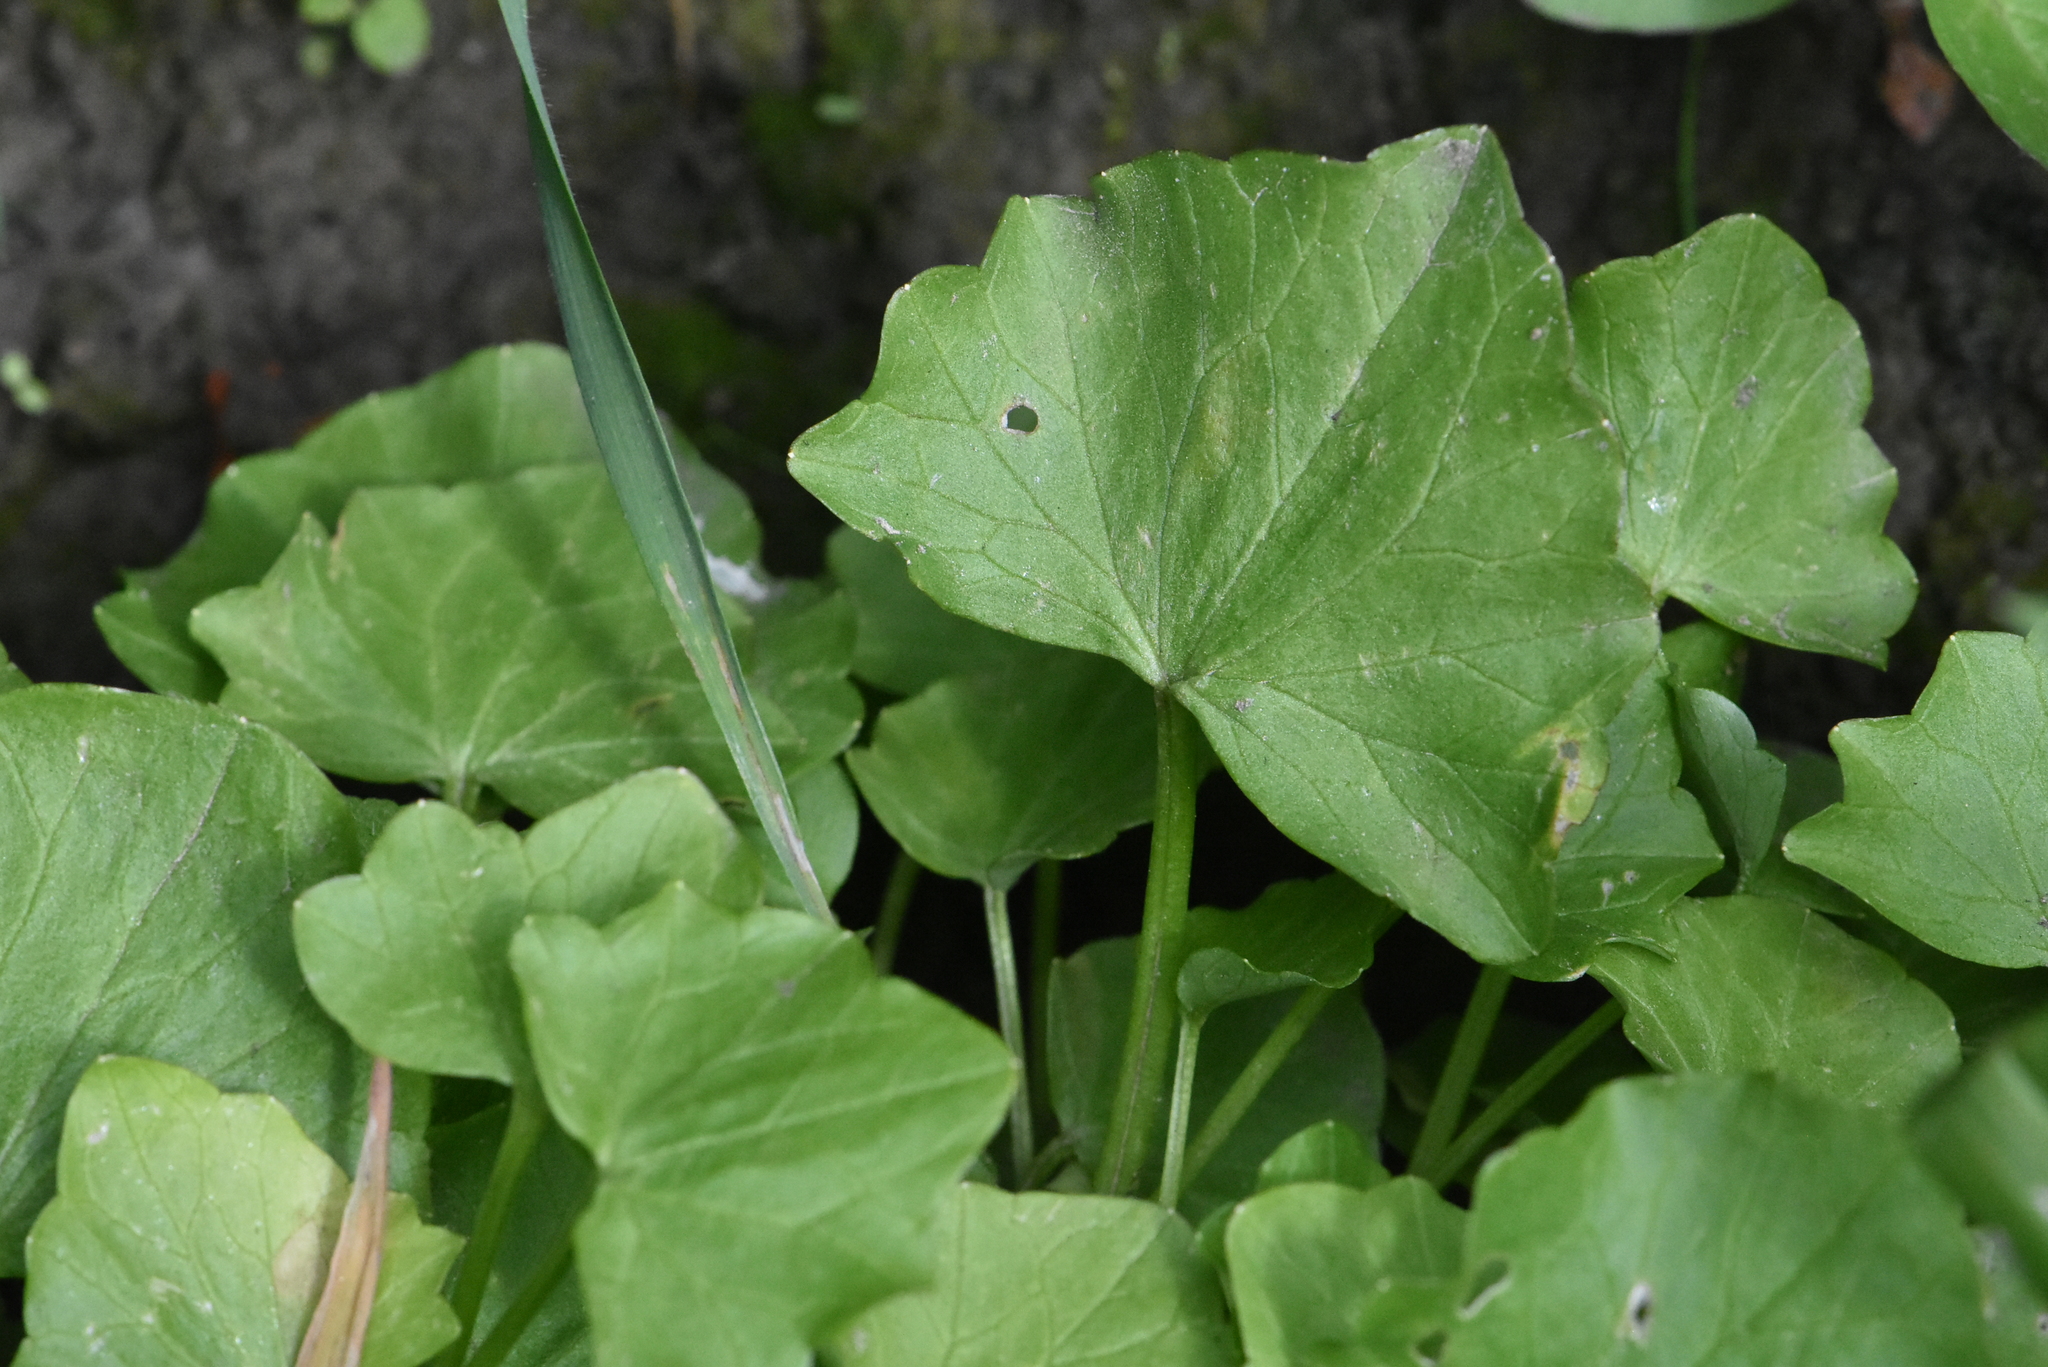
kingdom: Plantae
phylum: Tracheophyta
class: Magnoliopsida
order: Ranunculales
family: Ranunculaceae
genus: Ficaria
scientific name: Ficaria verna
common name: Lesser celandine
